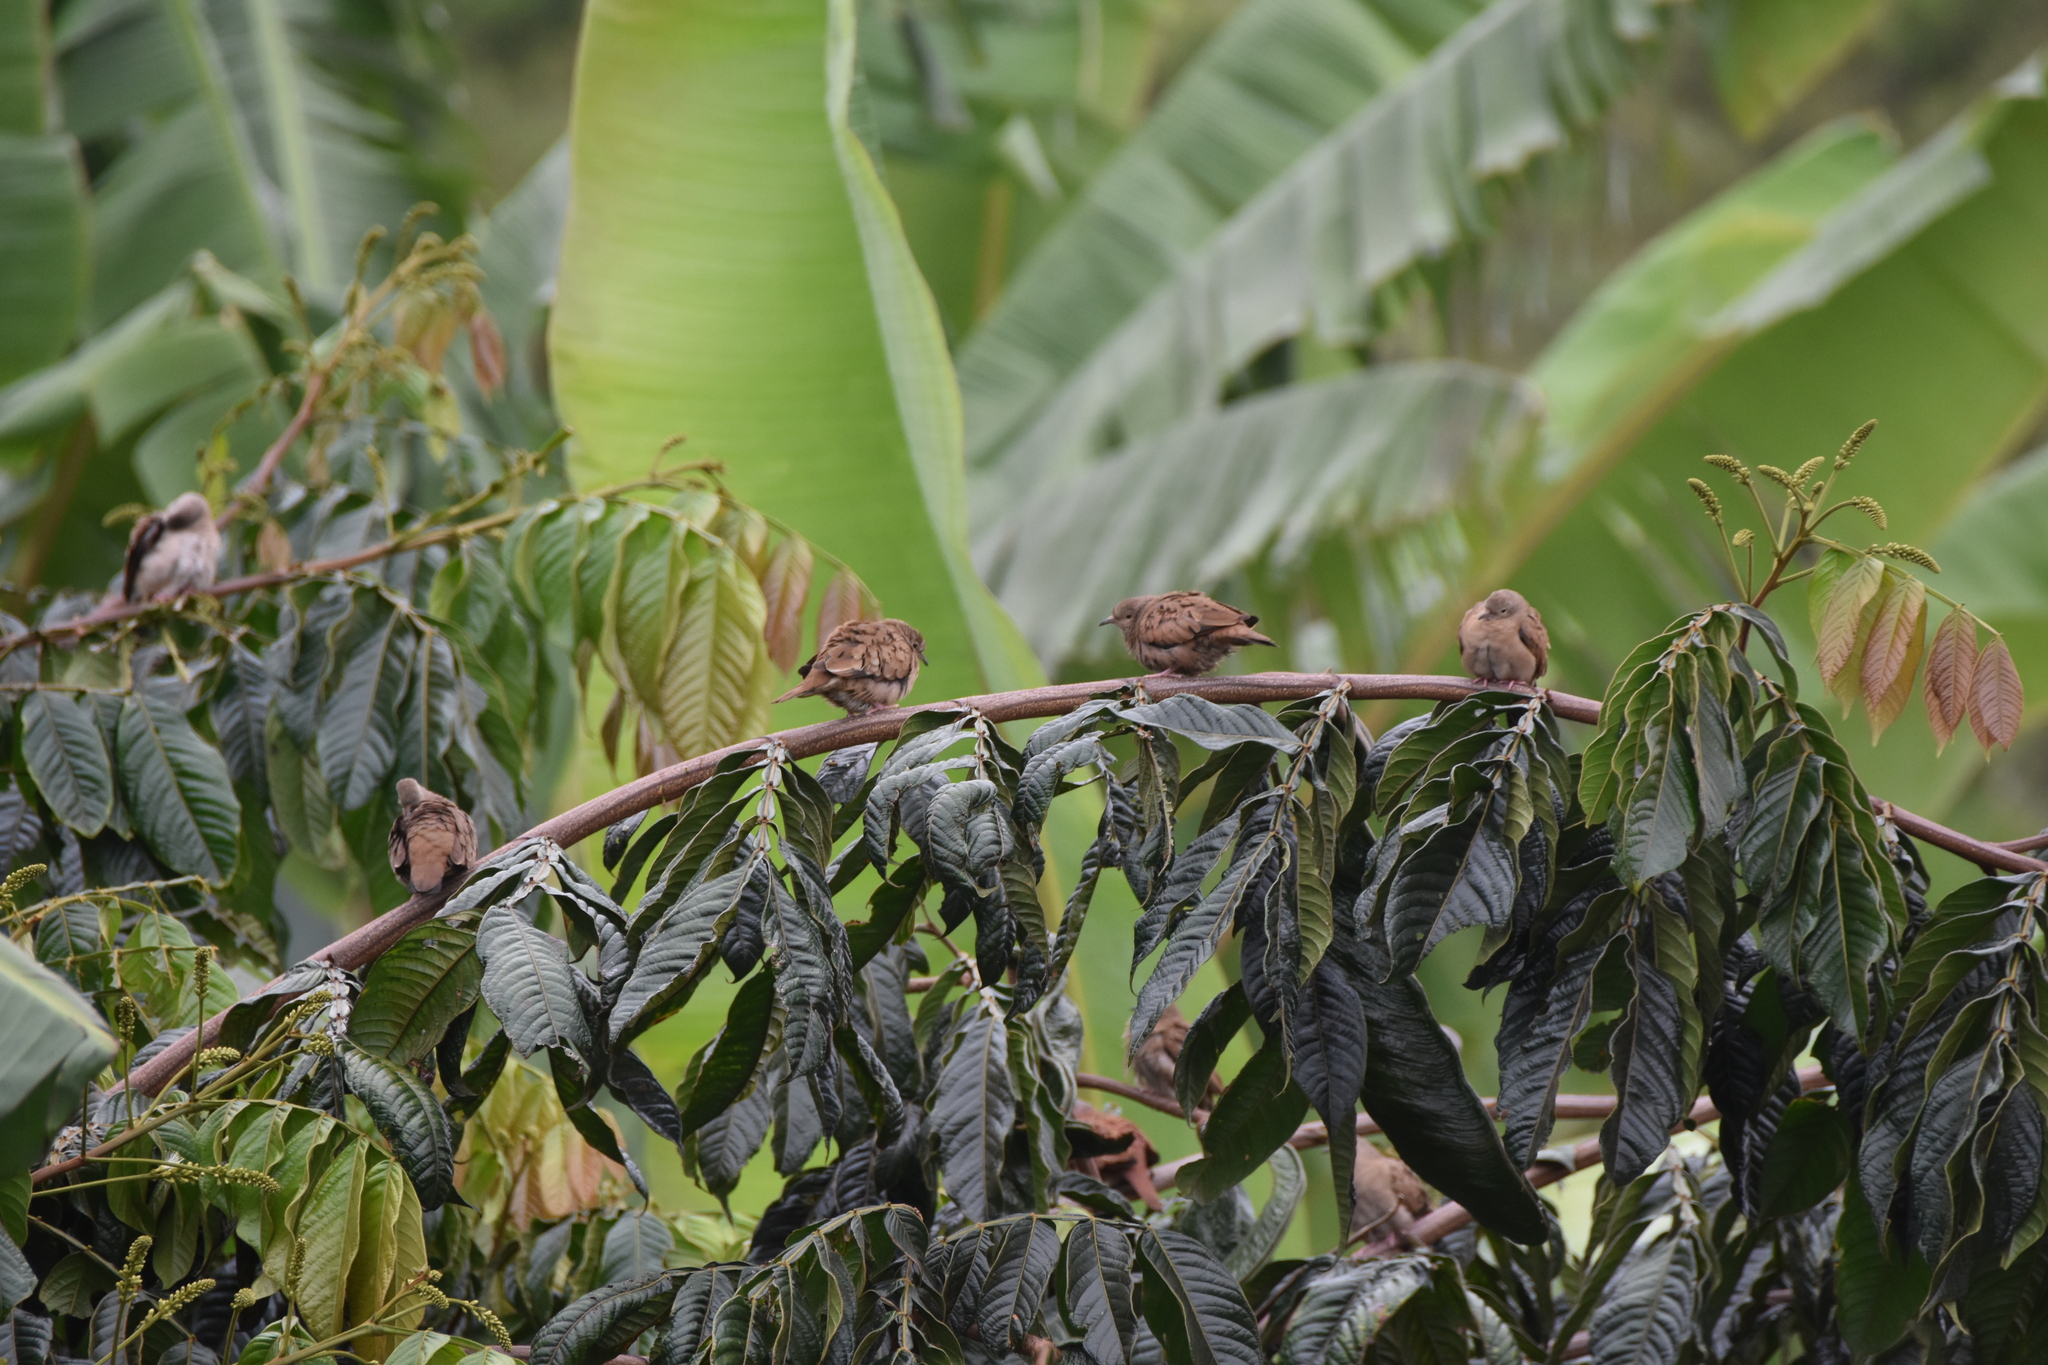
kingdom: Animalia
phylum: Chordata
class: Aves
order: Columbiformes
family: Columbidae
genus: Columbina
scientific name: Columbina talpacoti
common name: Ruddy ground dove
